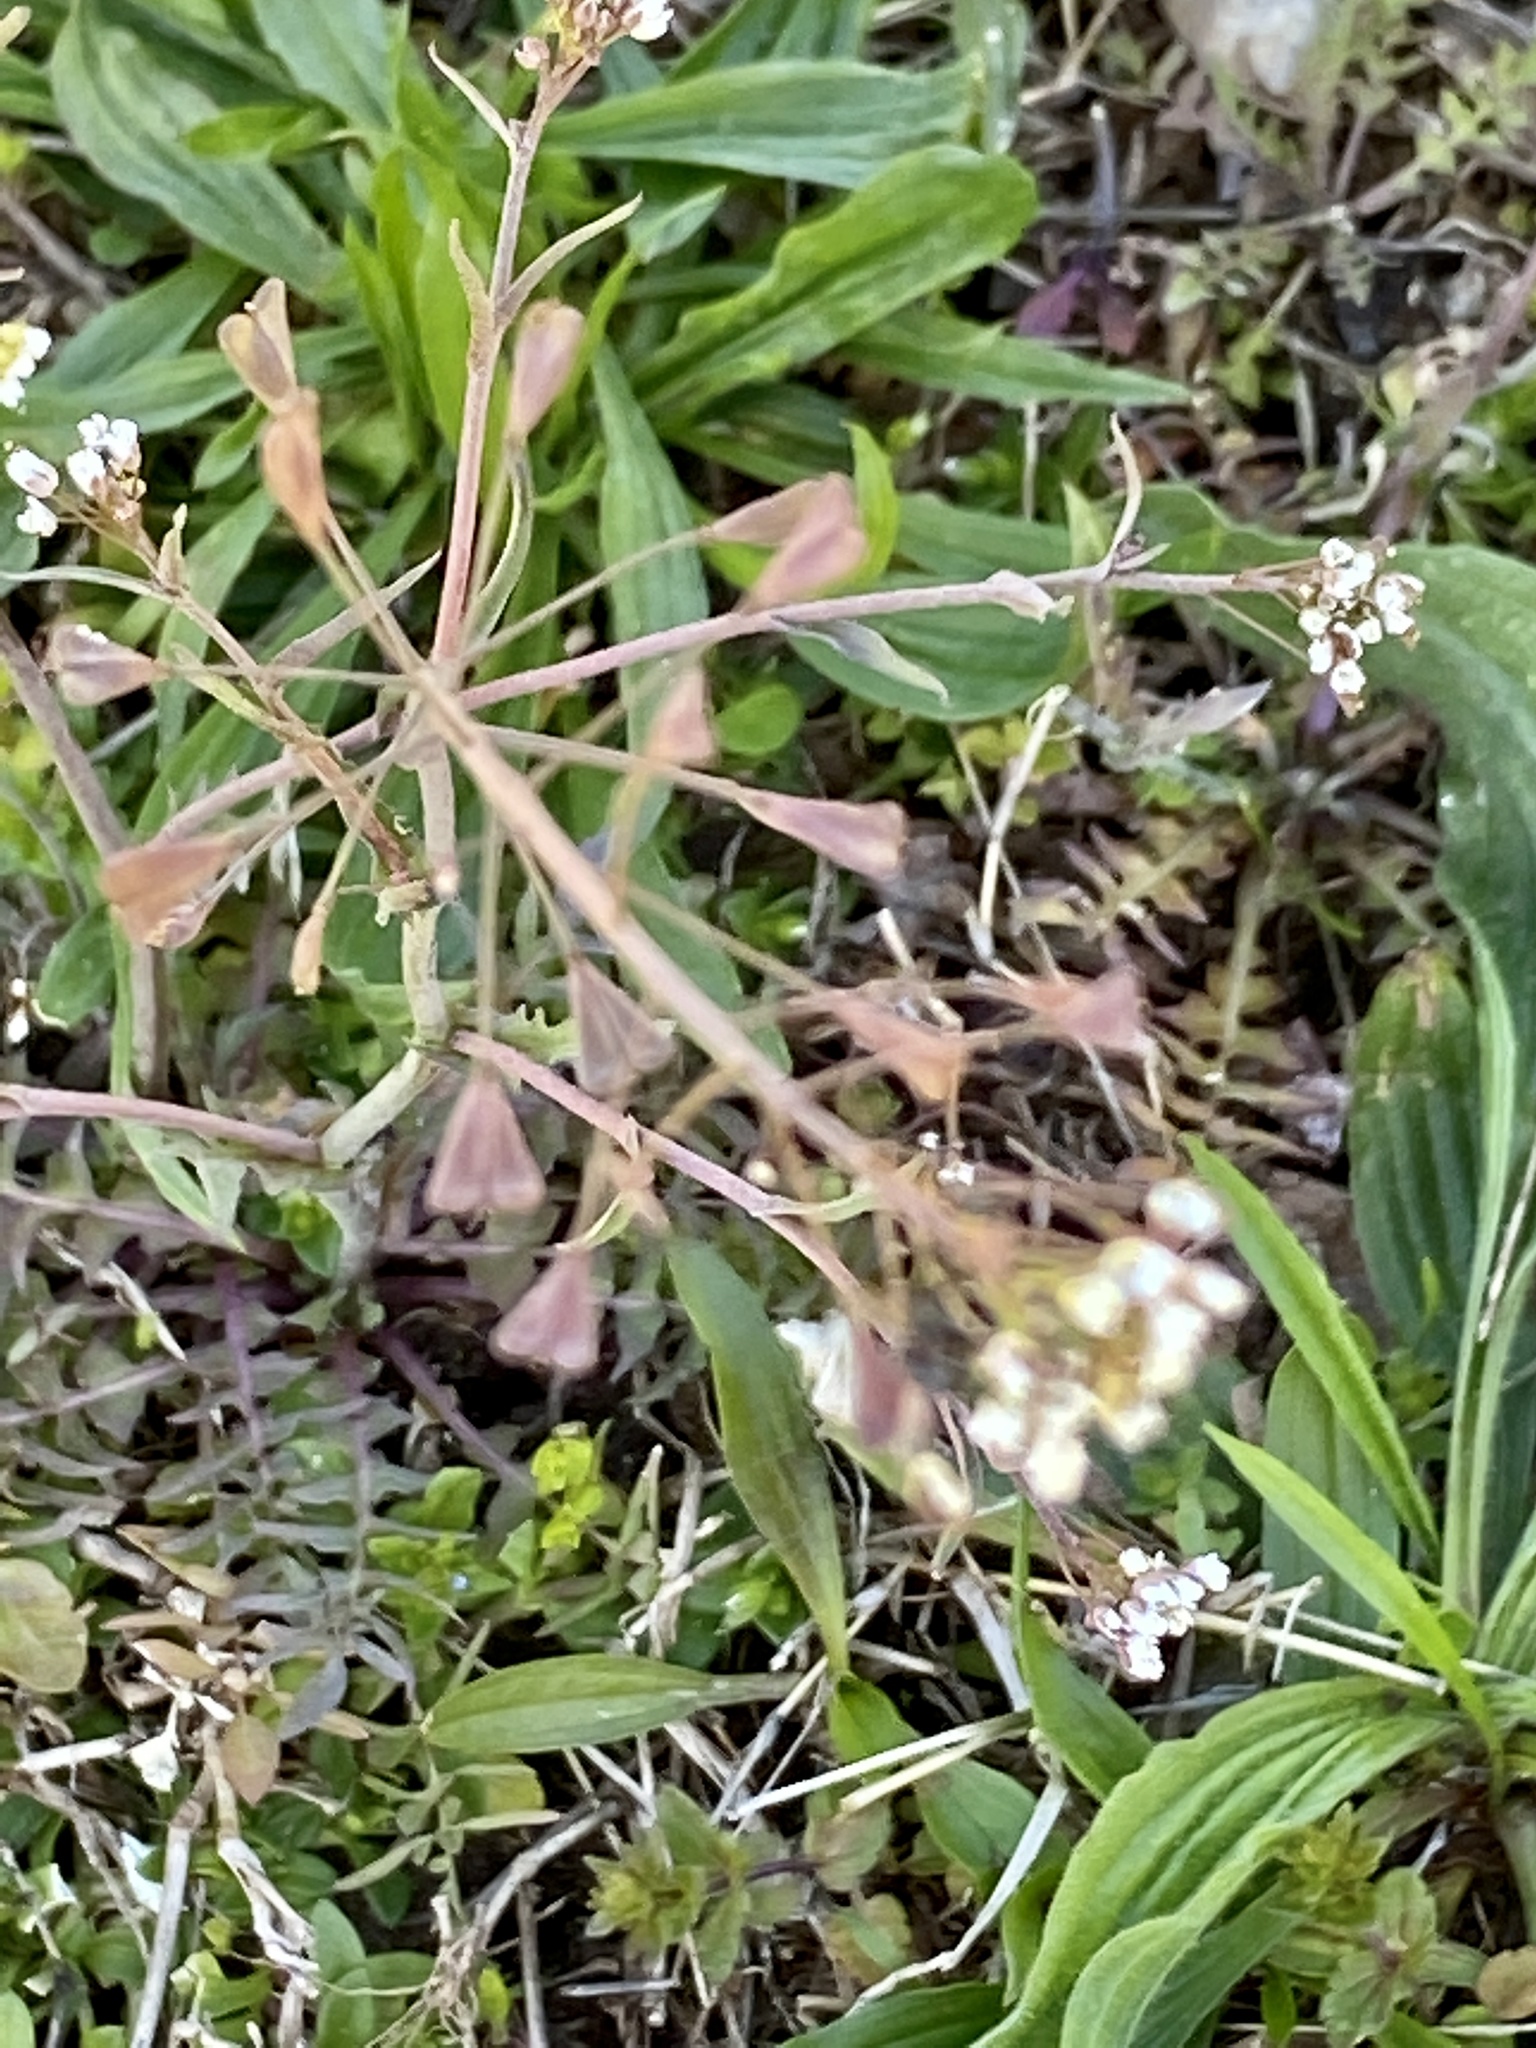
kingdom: Plantae
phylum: Tracheophyta
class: Magnoliopsida
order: Brassicales
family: Brassicaceae
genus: Capsella
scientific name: Capsella bursa-pastoris
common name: Shepherd's purse
